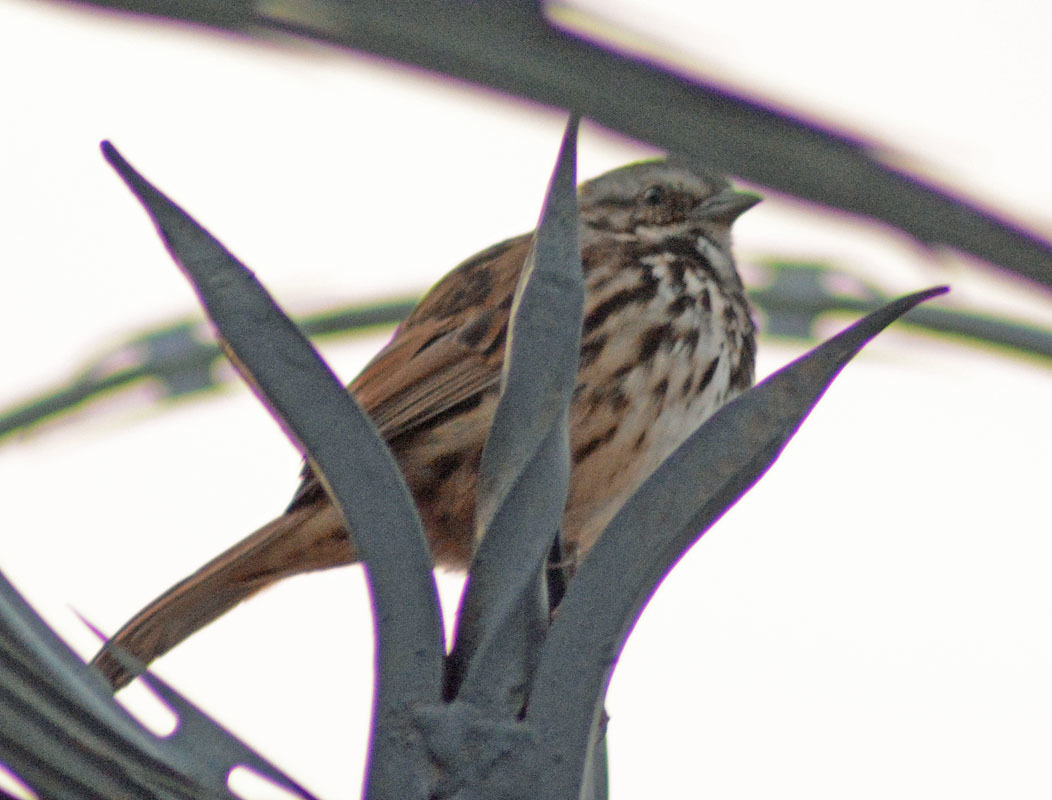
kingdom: Animalia
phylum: Chordata
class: Aves
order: Passeriformes
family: Passerellidae
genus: Melospiza
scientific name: Melospiza melodia
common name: Song sparrow
